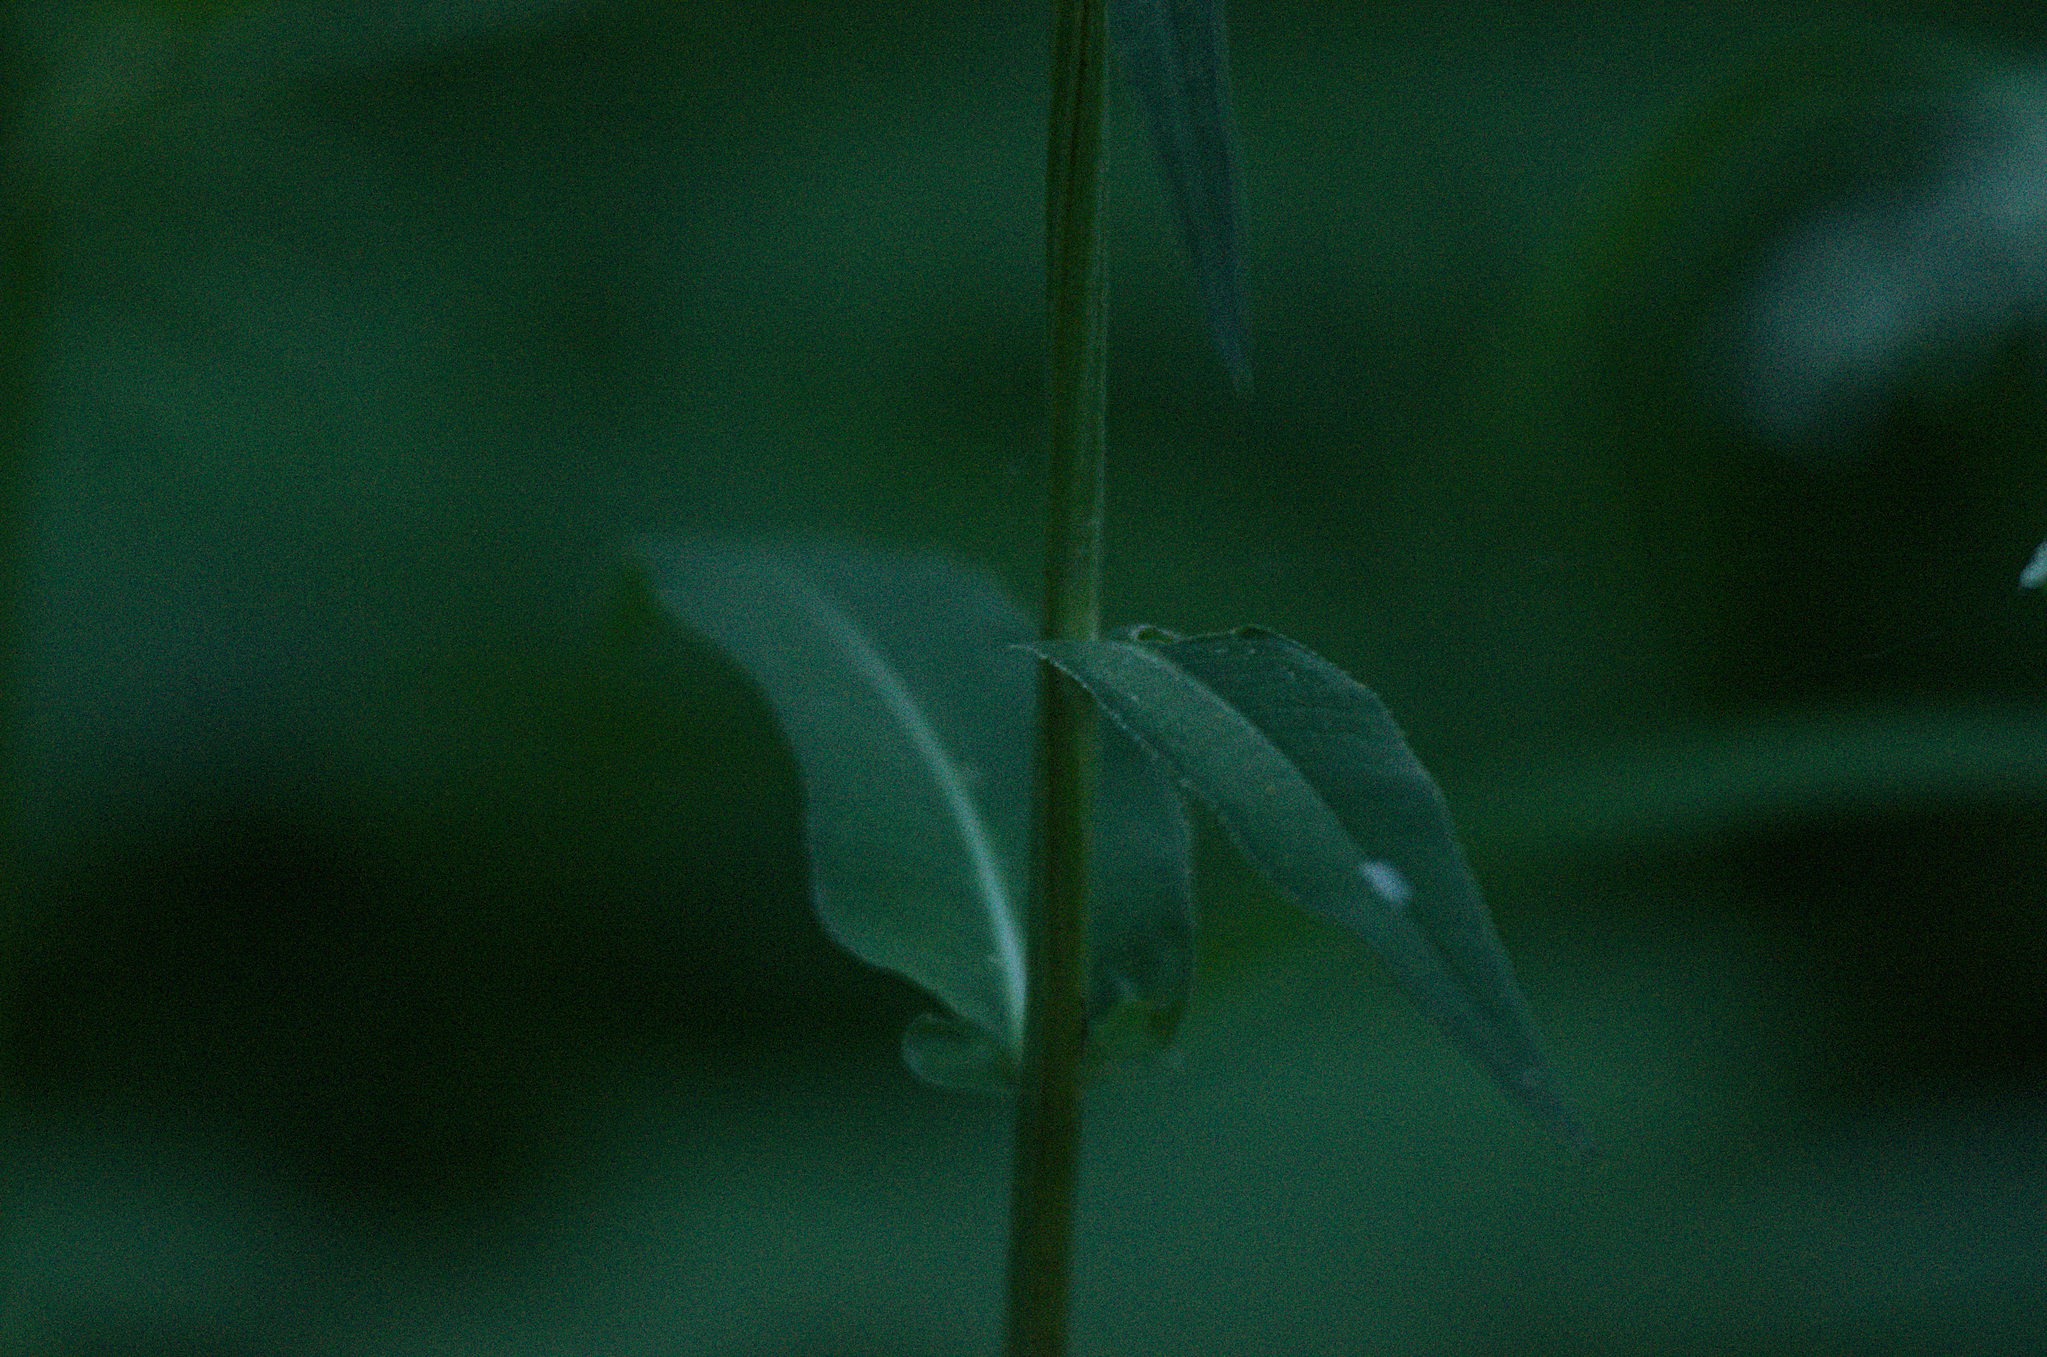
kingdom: Plantae
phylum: Tracheophyta
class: Magnoliopsida
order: Asterales
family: Asteraceae
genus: Cirsium
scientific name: Cirsium heterophyllum
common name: Melancholy thistle
